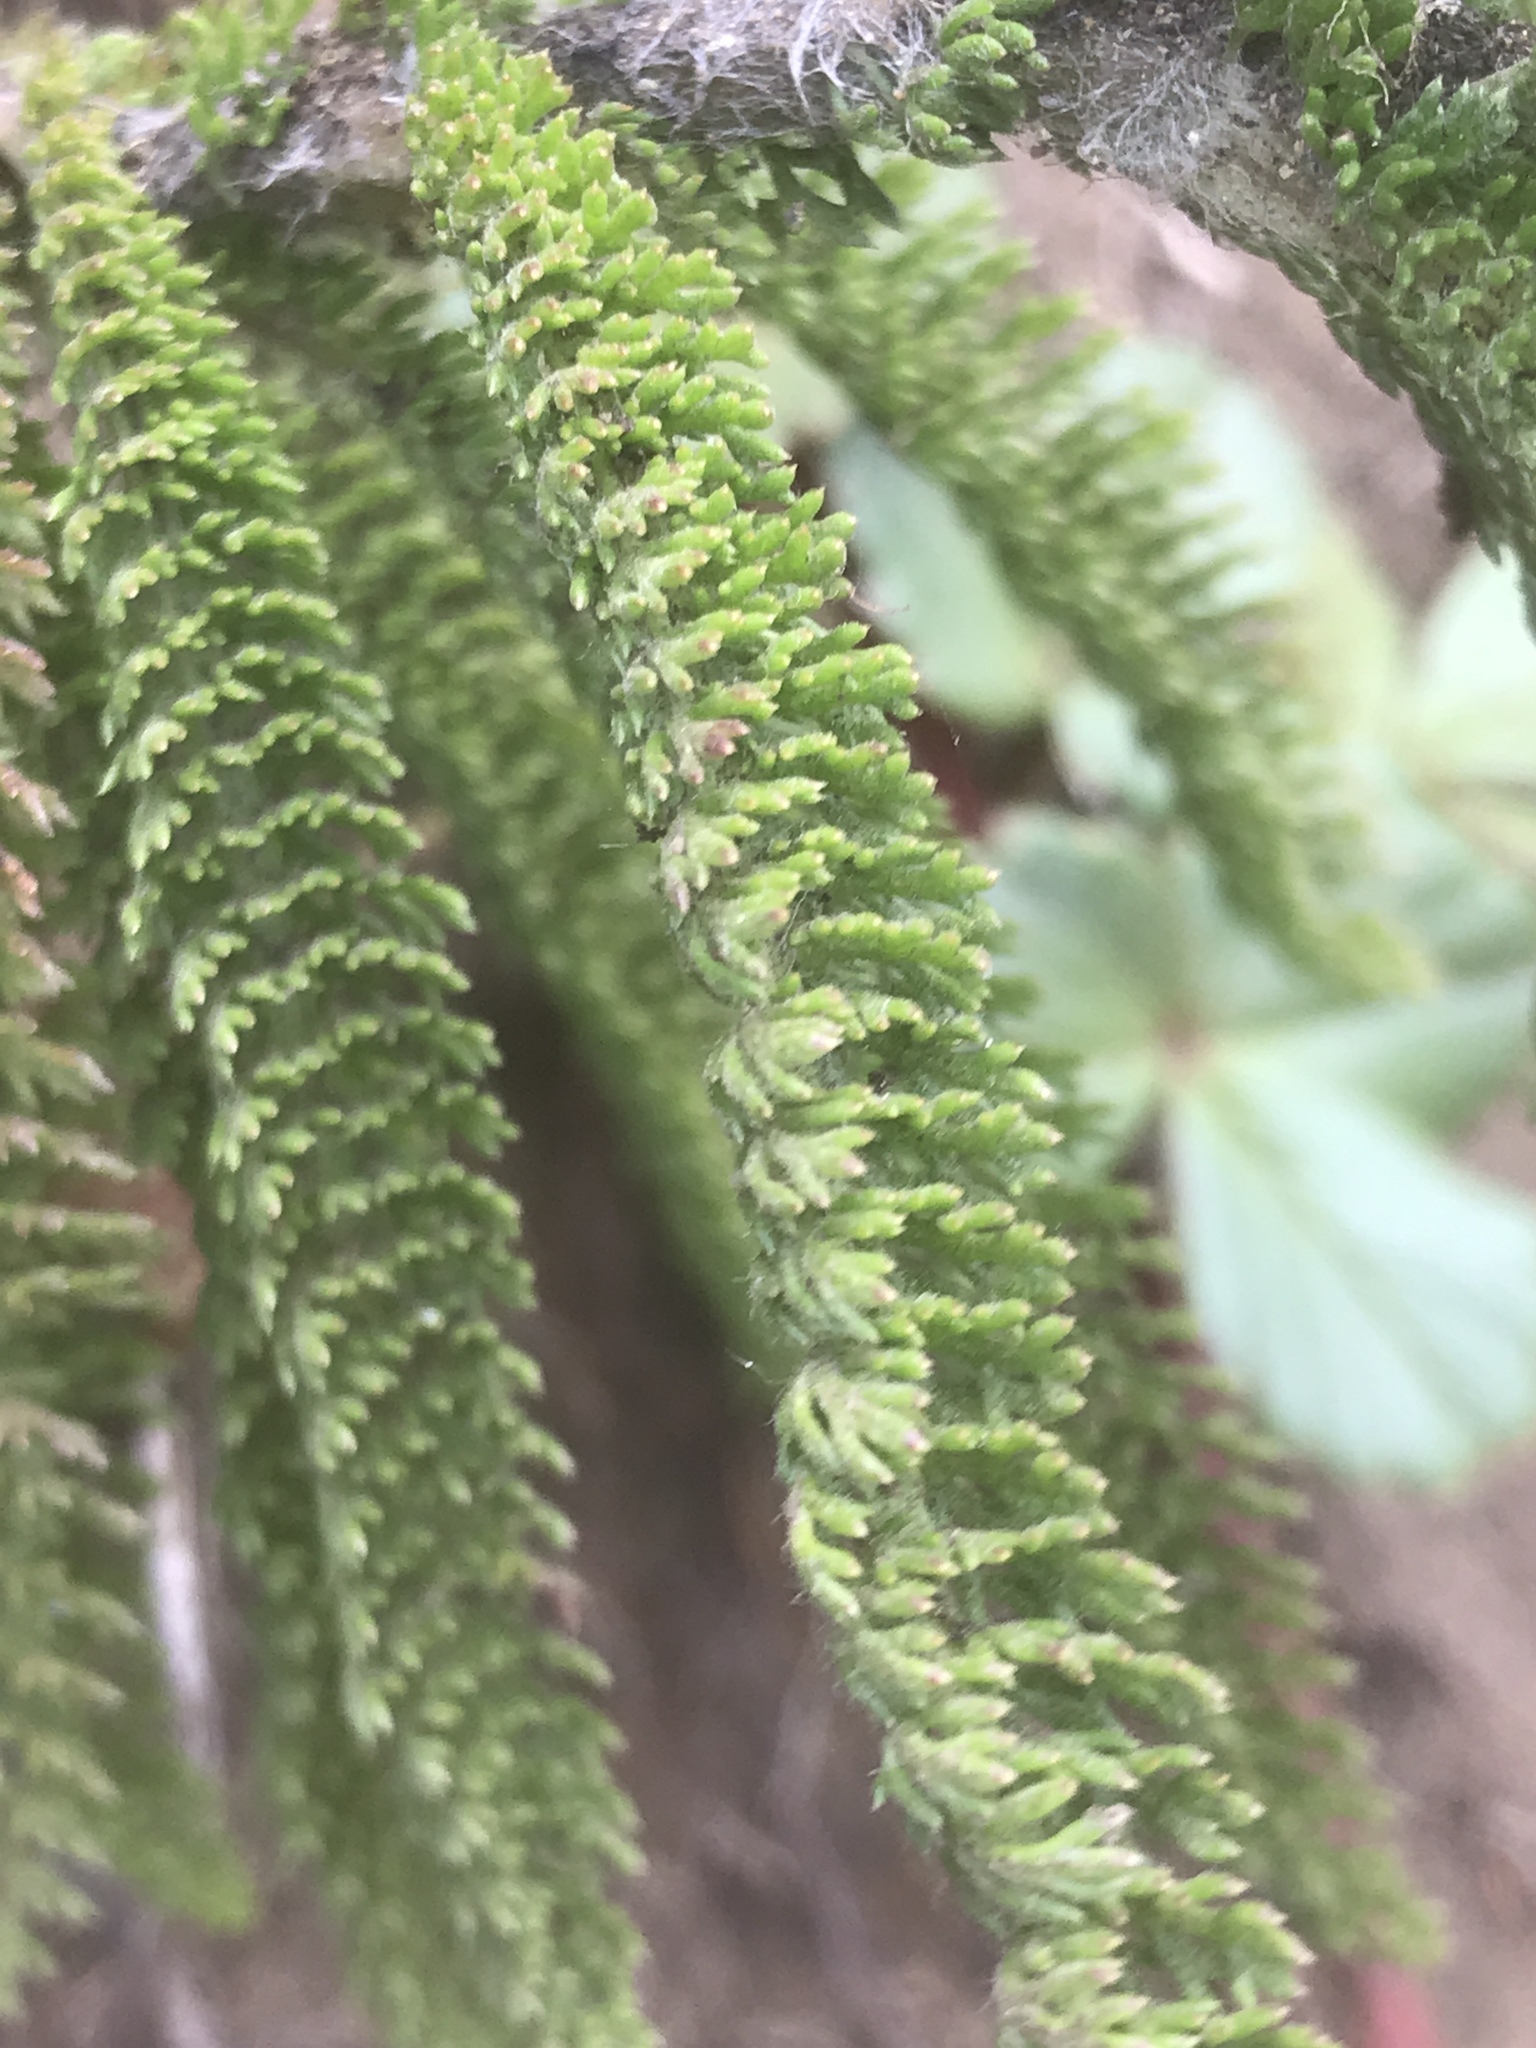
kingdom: Plantae
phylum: Tracheophyta
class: Magnoliopsida
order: Asterales
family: Asteraceae
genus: Achillea
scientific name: Achillea millefolium
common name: Yarrow
